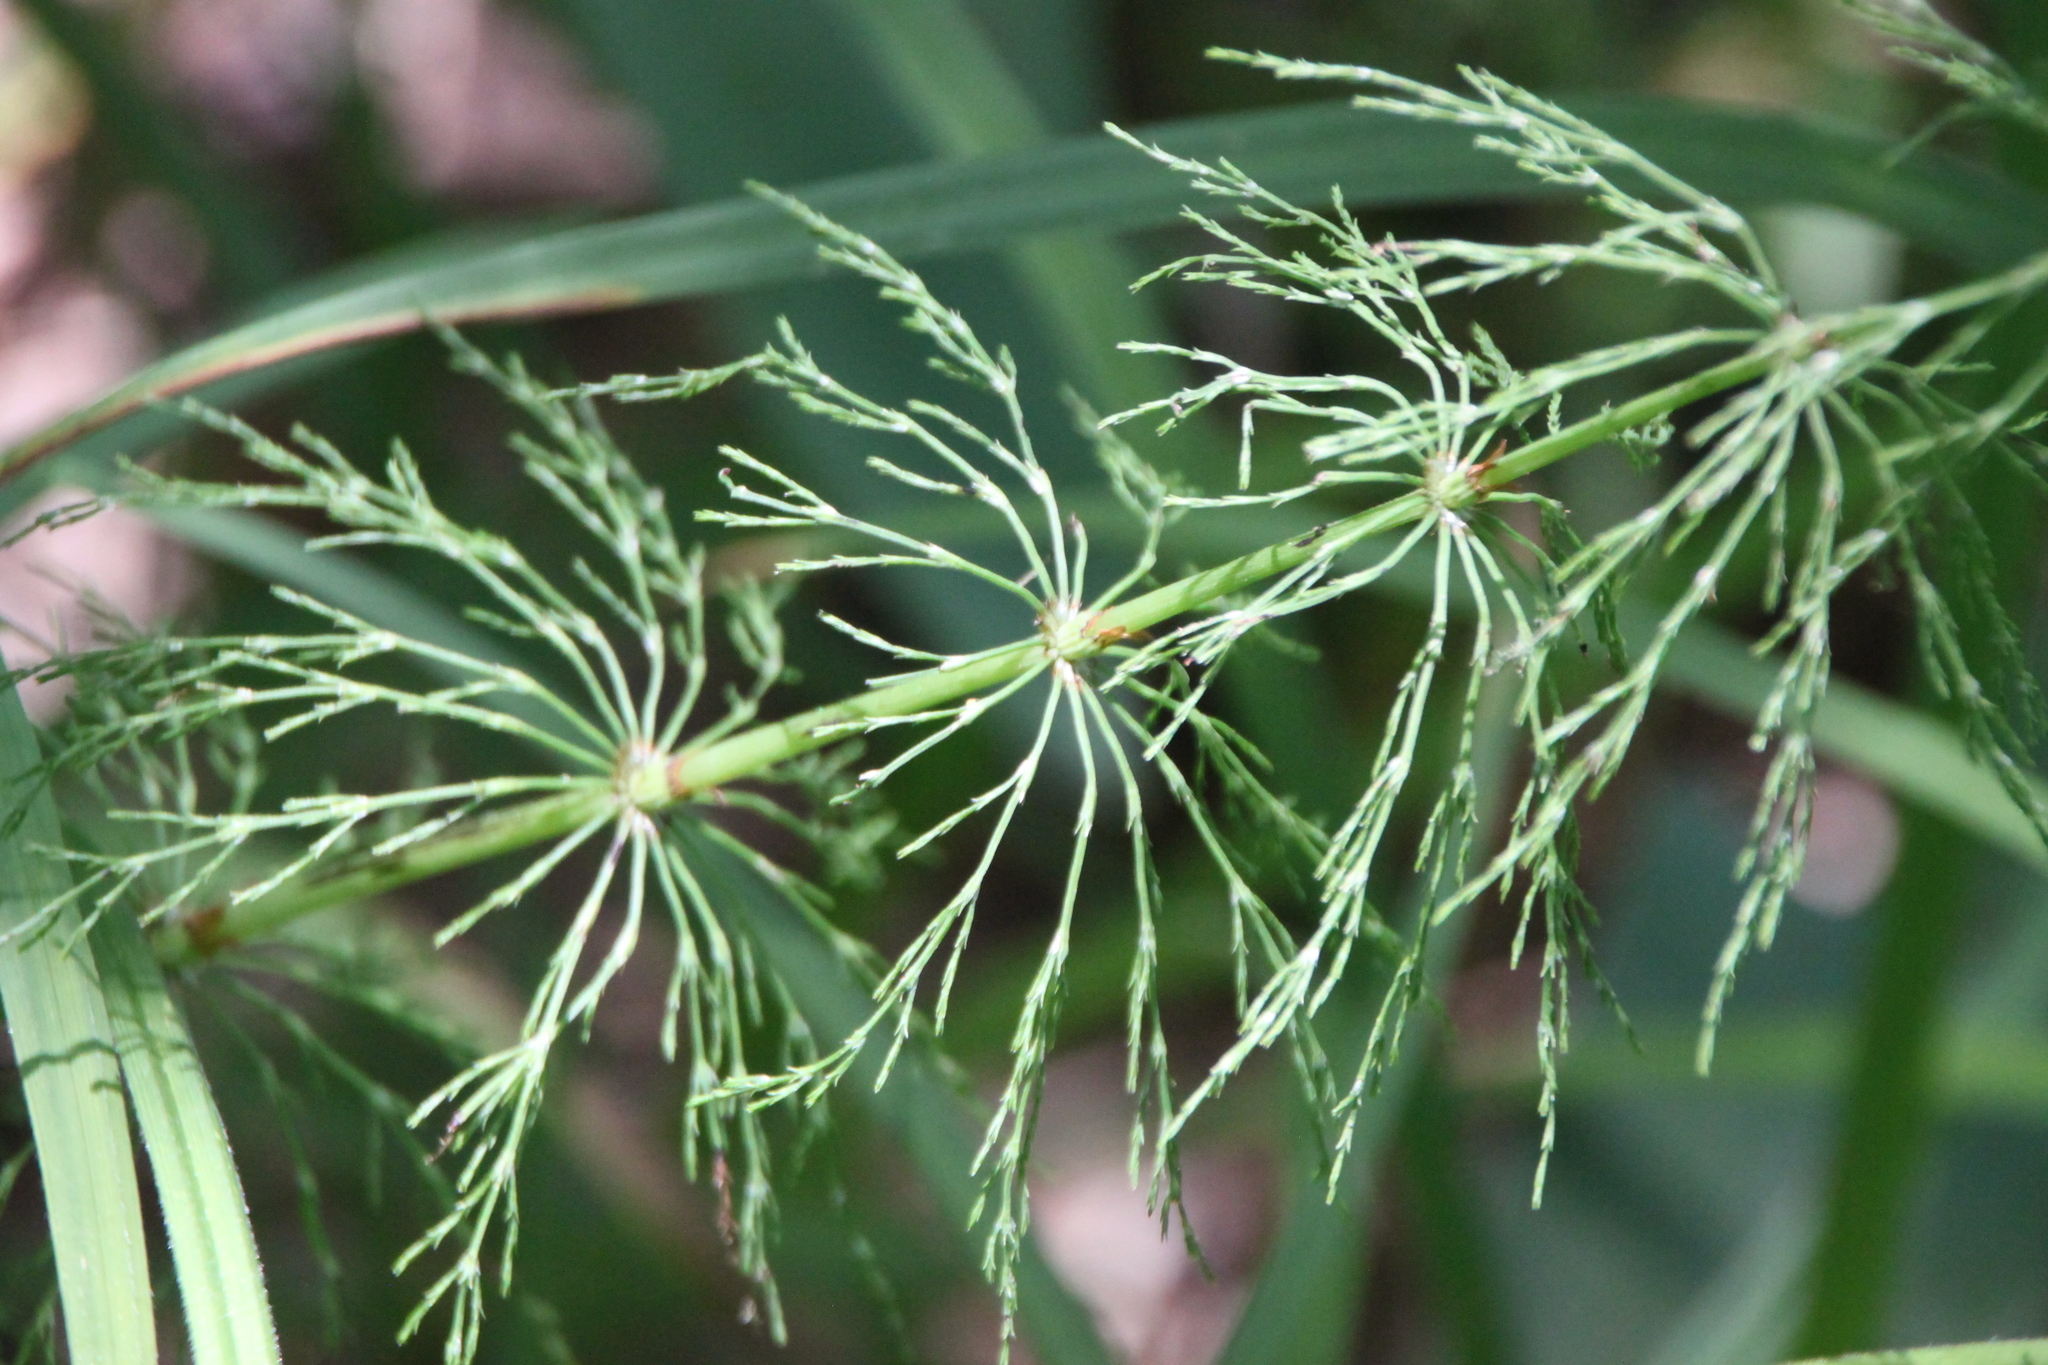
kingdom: Plantae
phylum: Tracheophyta
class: Polypodiopsida
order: Equisetales
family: Equisetaceae
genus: Equisetum
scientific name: Equisetum sylvaticum
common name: Wood horsetail
